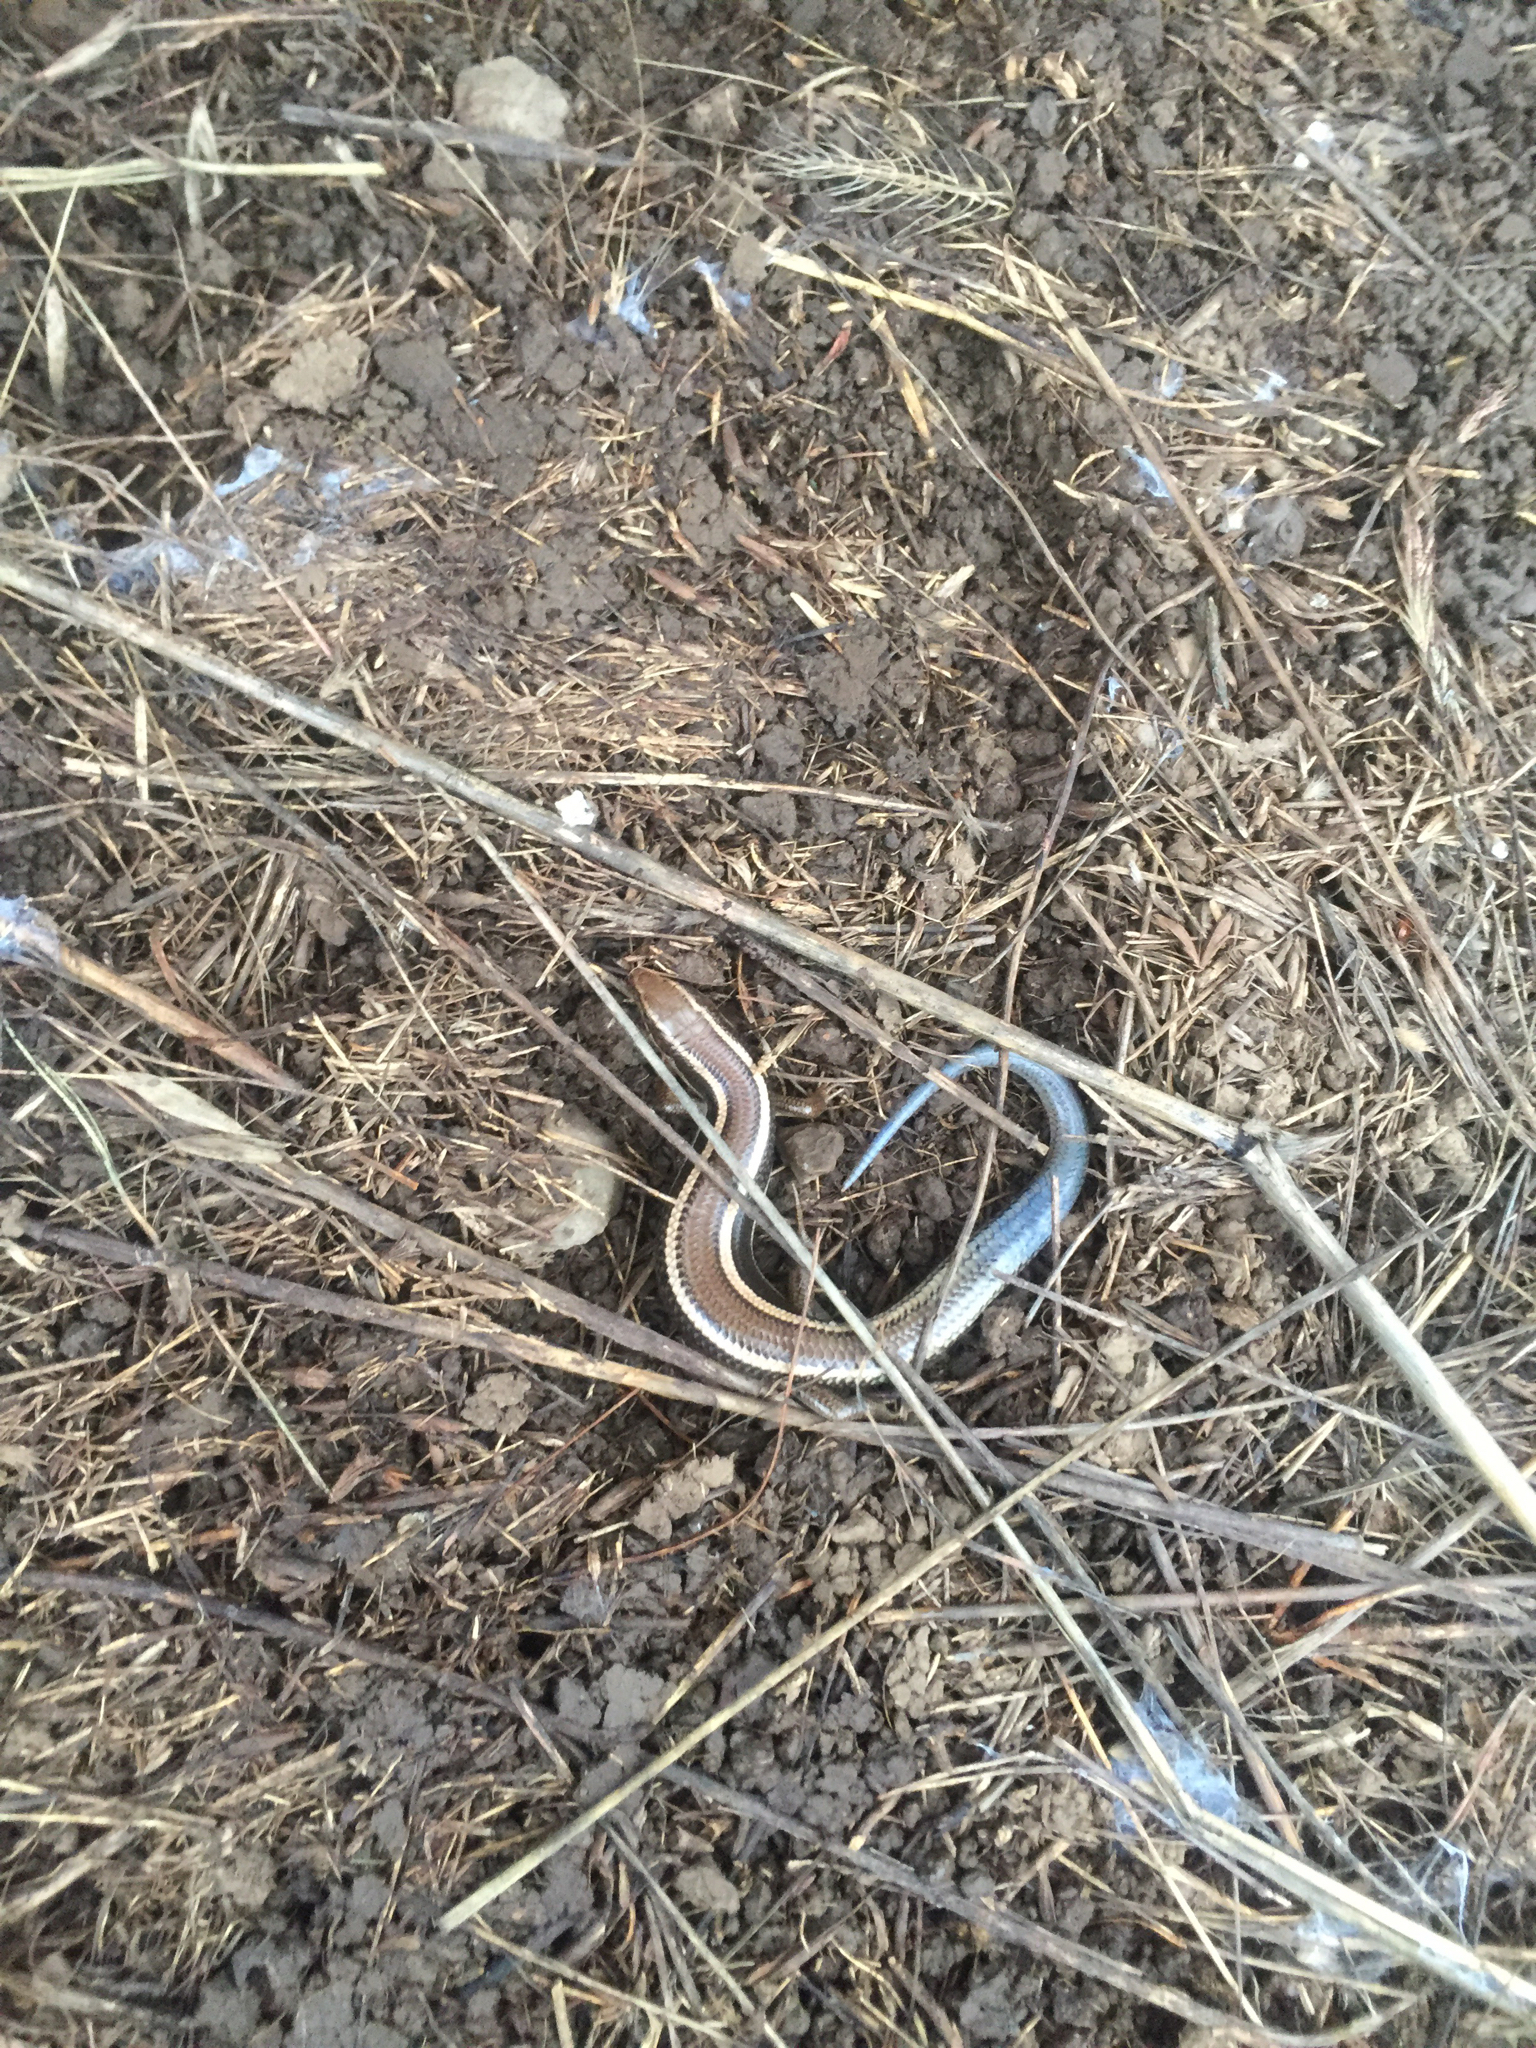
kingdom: Animalia
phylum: Chordata
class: Squamata
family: Scincidae
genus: Plestiodon
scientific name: Plestiodon skiltonianus
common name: Coronado island skink [interparietalis]
